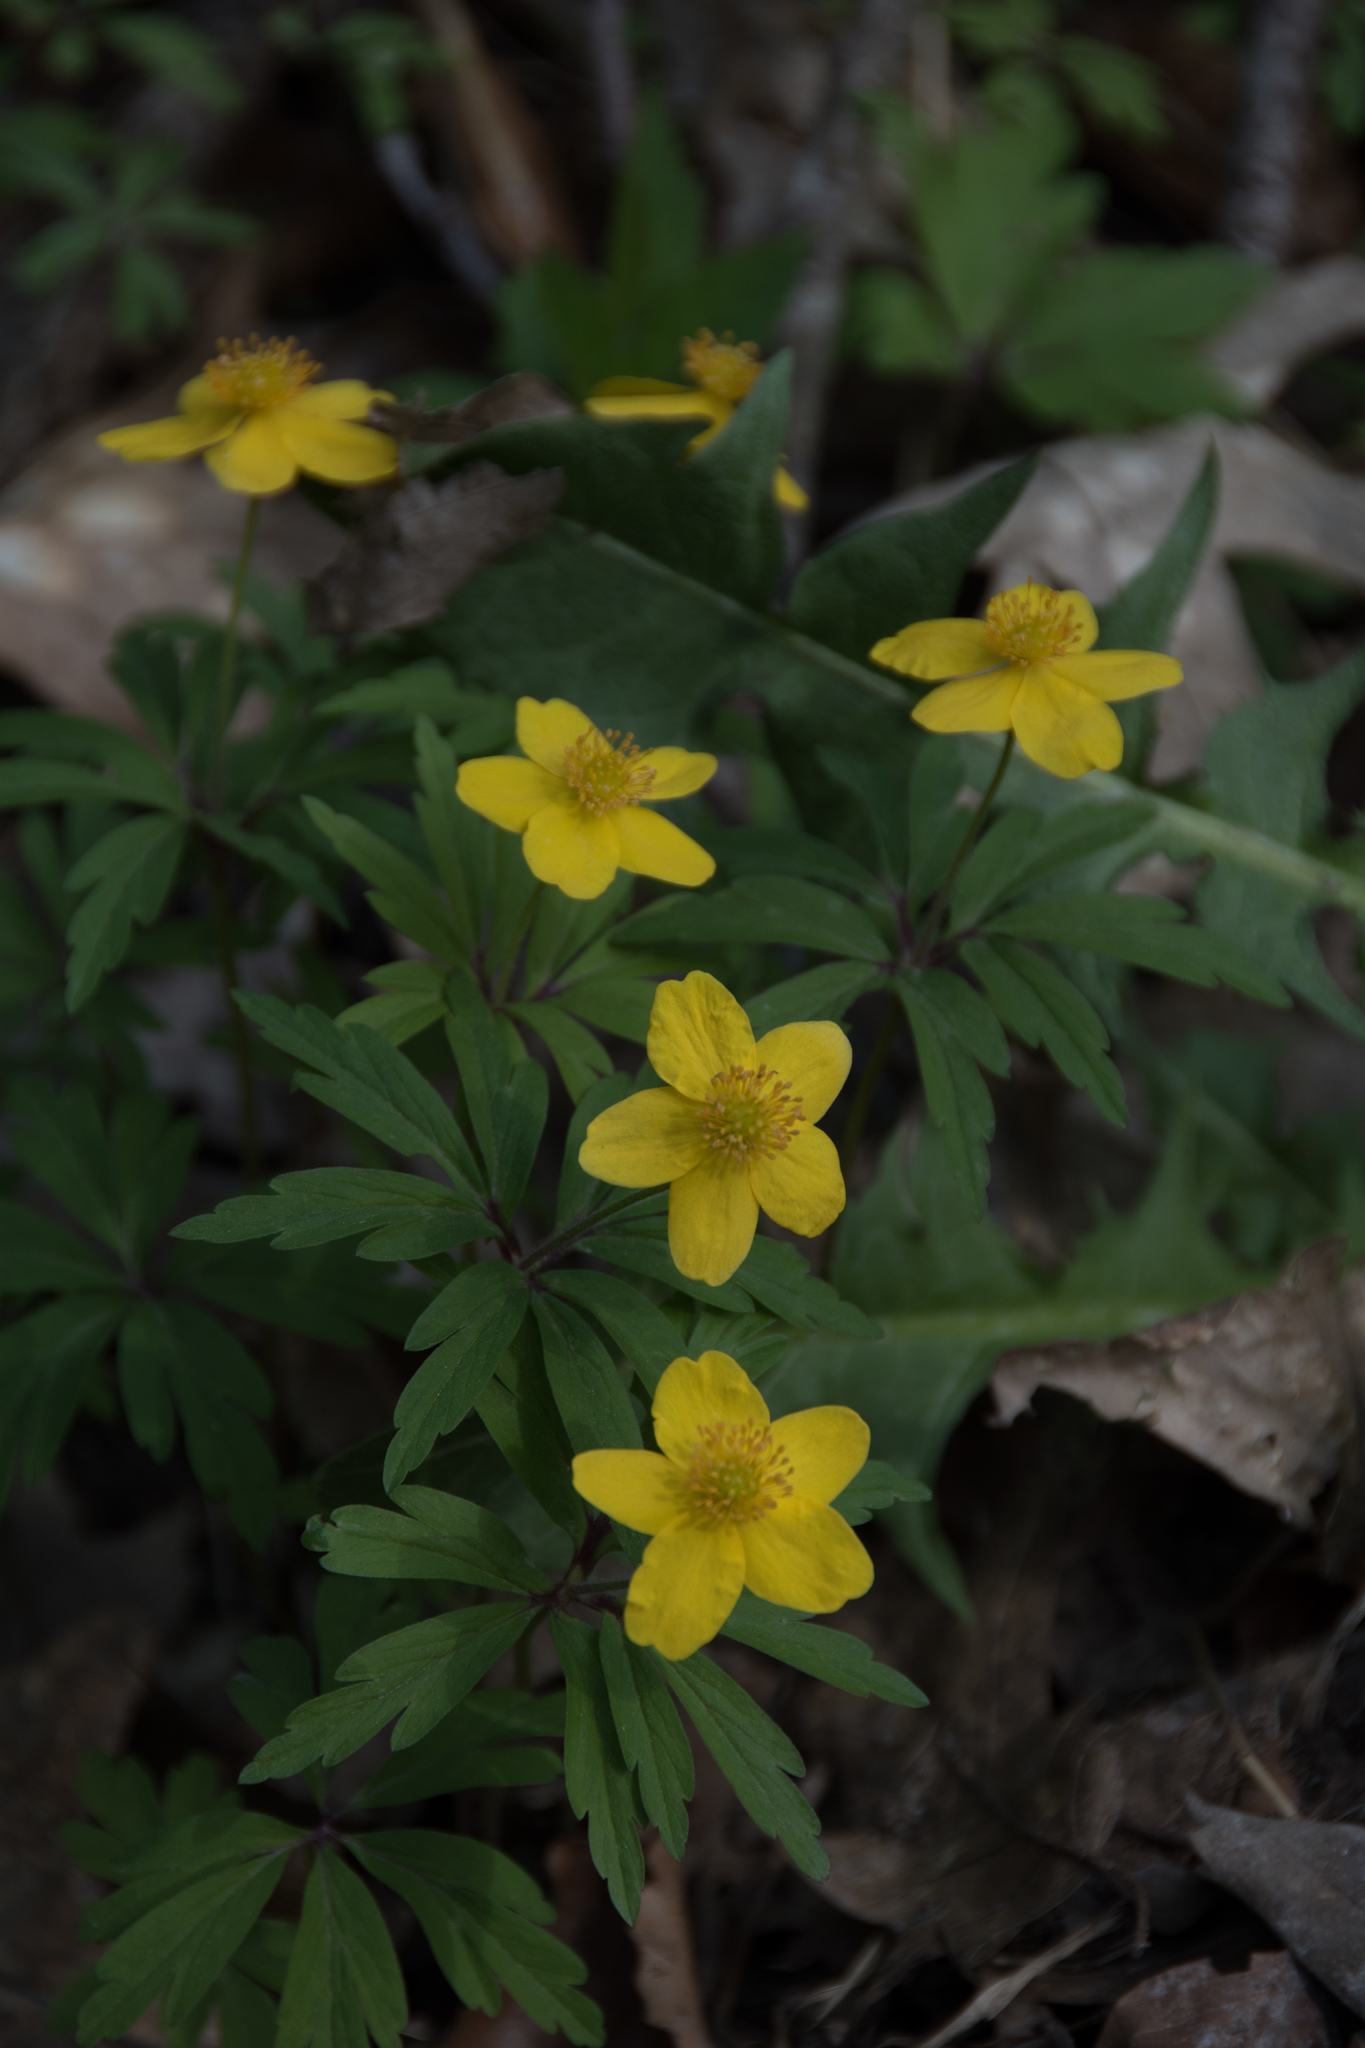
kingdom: Plantae
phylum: Tracheophyta
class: Magnoliopsida
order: Ranunculales
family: Ranunculaceae
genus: Anemone
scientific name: Anemone ranunculoides
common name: Yellow anemone
